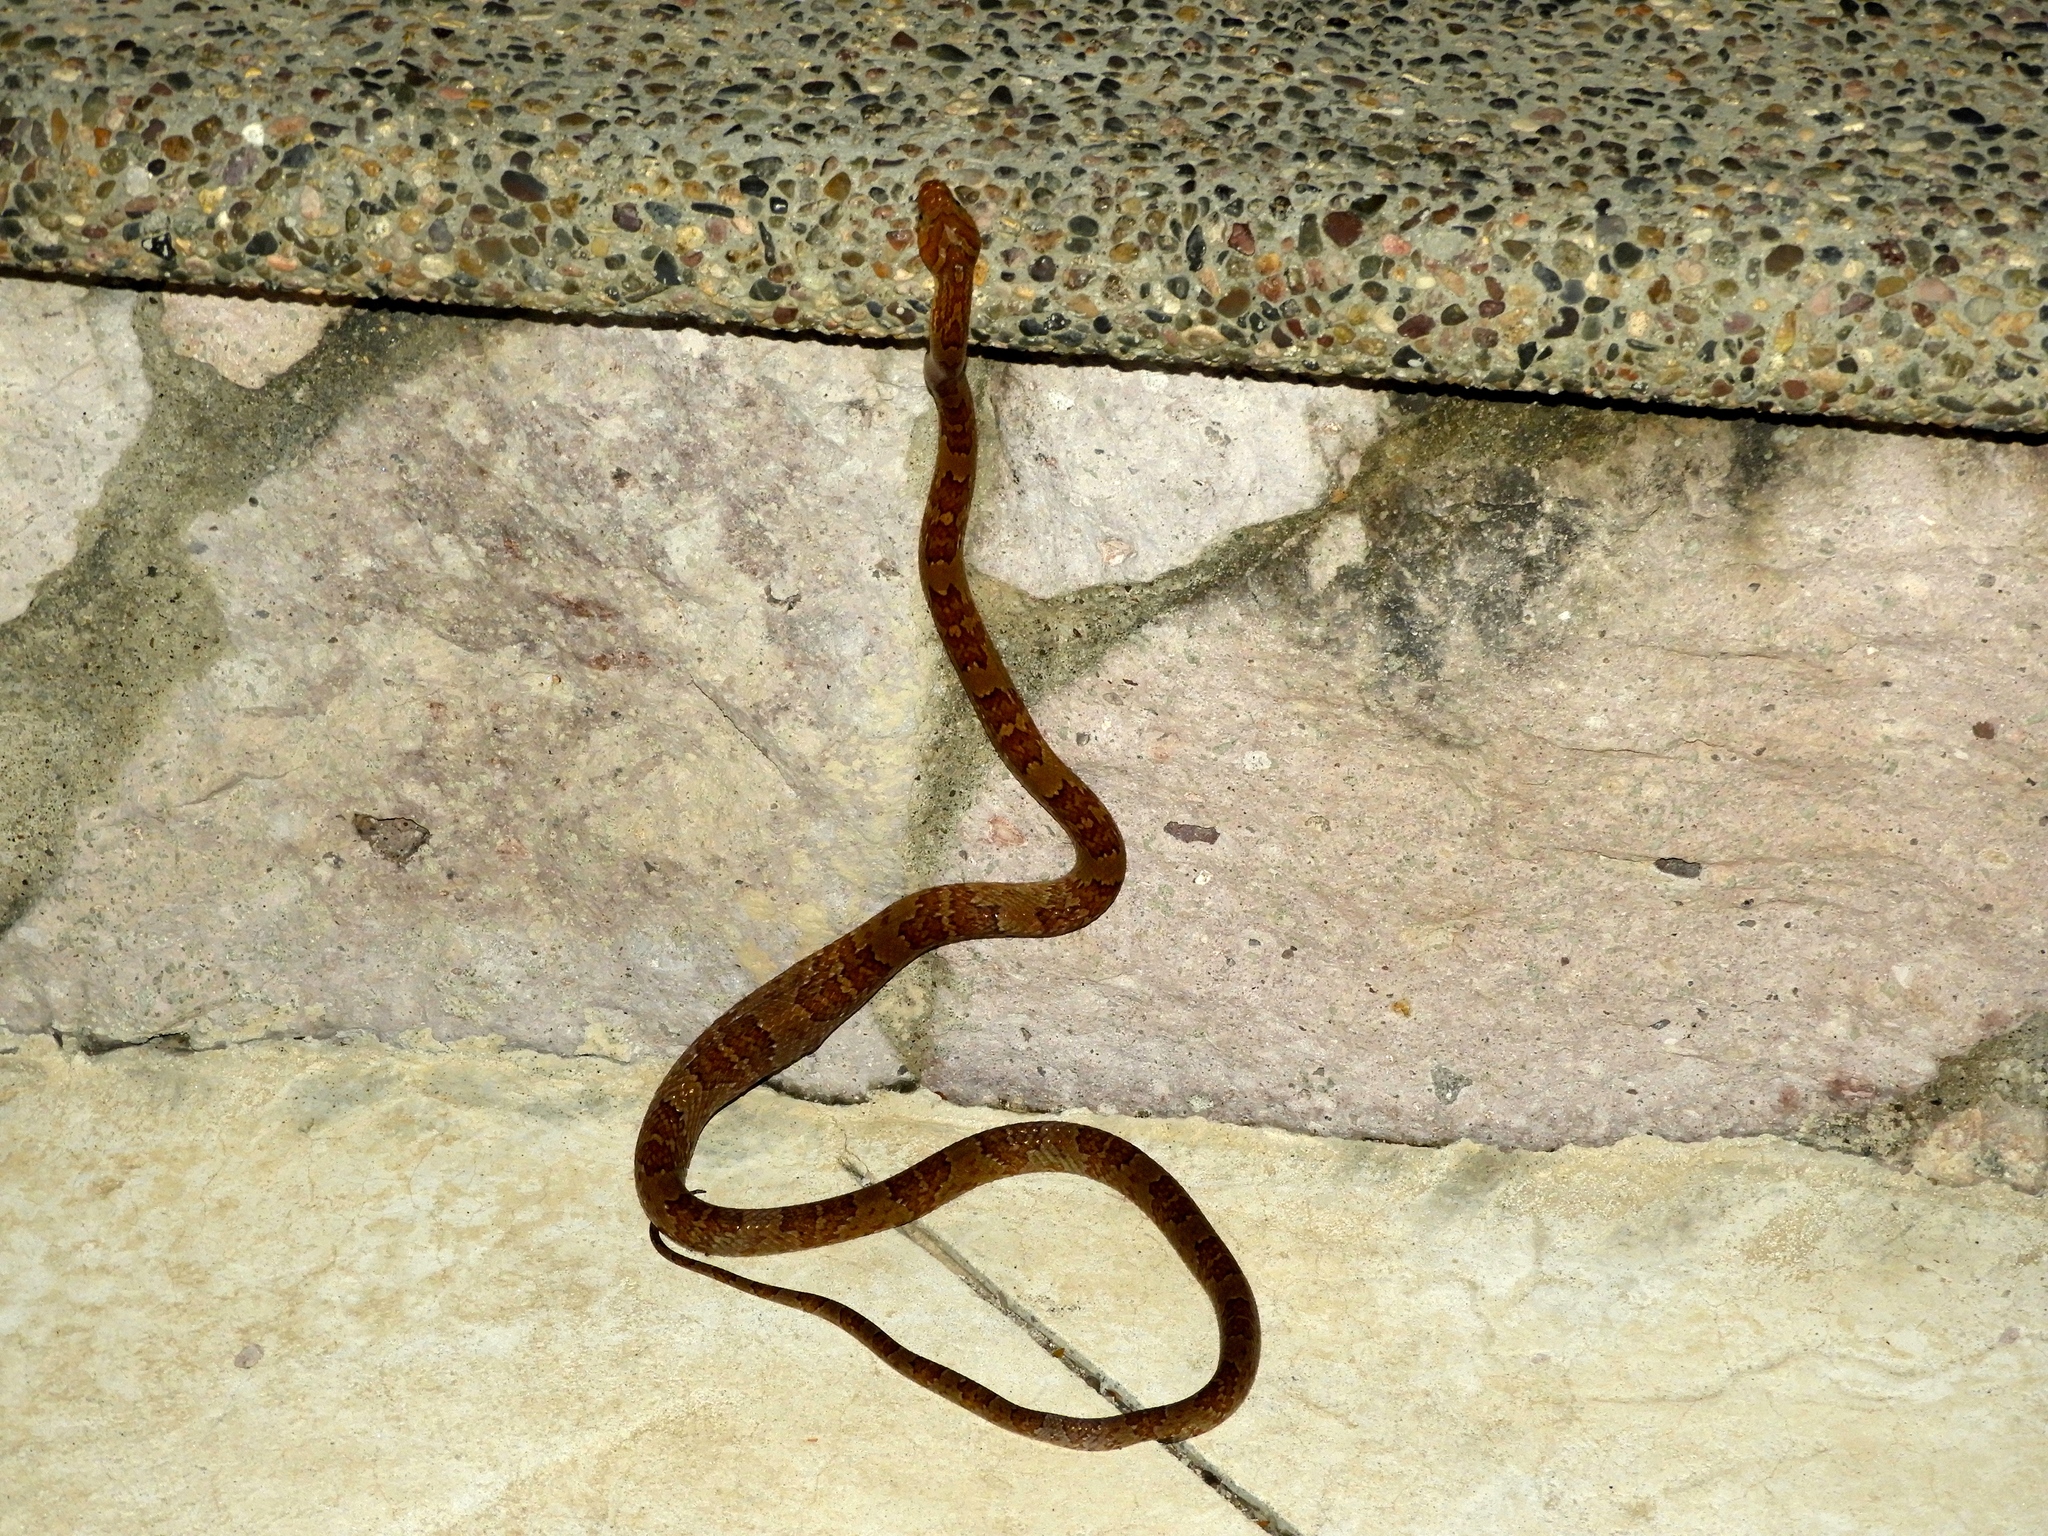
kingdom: Animalia
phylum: Chordata
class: Squamata
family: Colubridae
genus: Trimorphodon
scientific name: Trimorphodon paucimaculatus
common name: Sinaloan lyresnake
